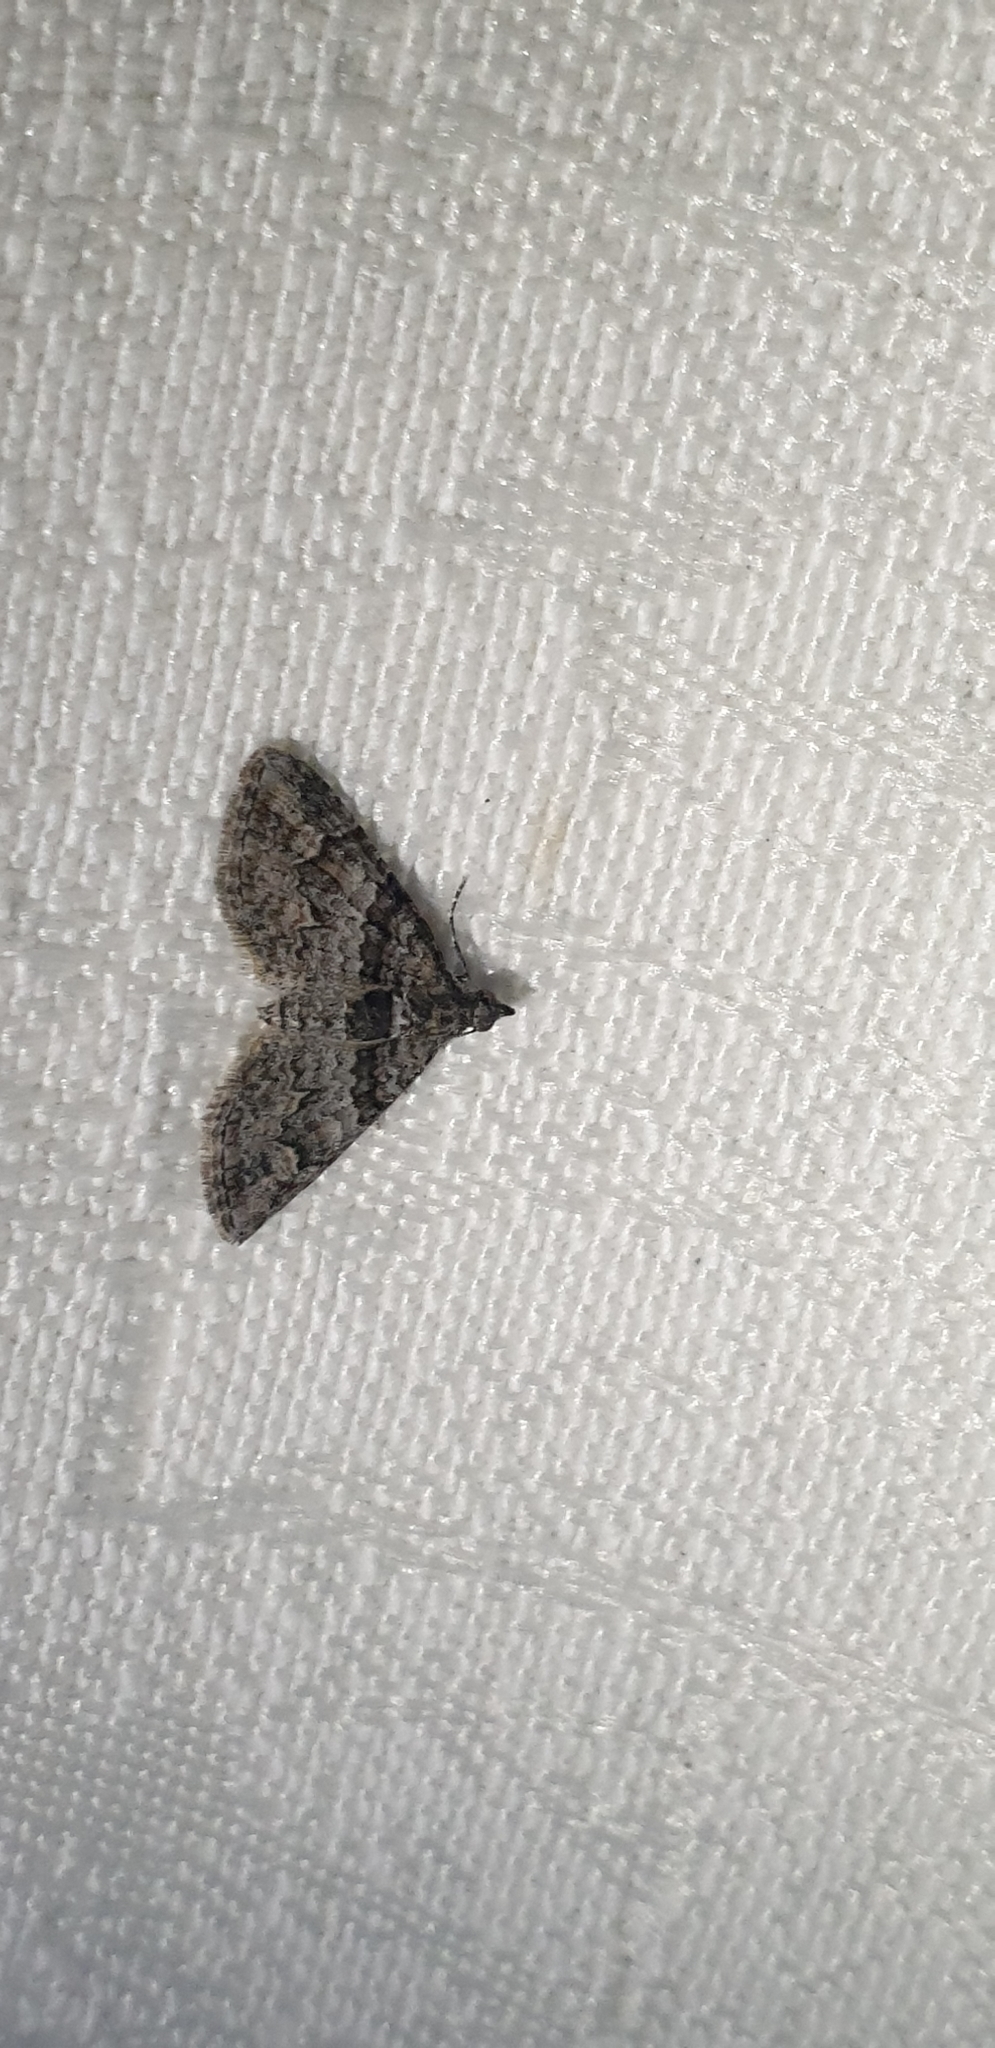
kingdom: Animalia
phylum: Arthropoda
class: Insecta
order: Lepidoptera
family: Geometridae
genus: Phrissogonus
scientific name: Phrissogonus laticostata
